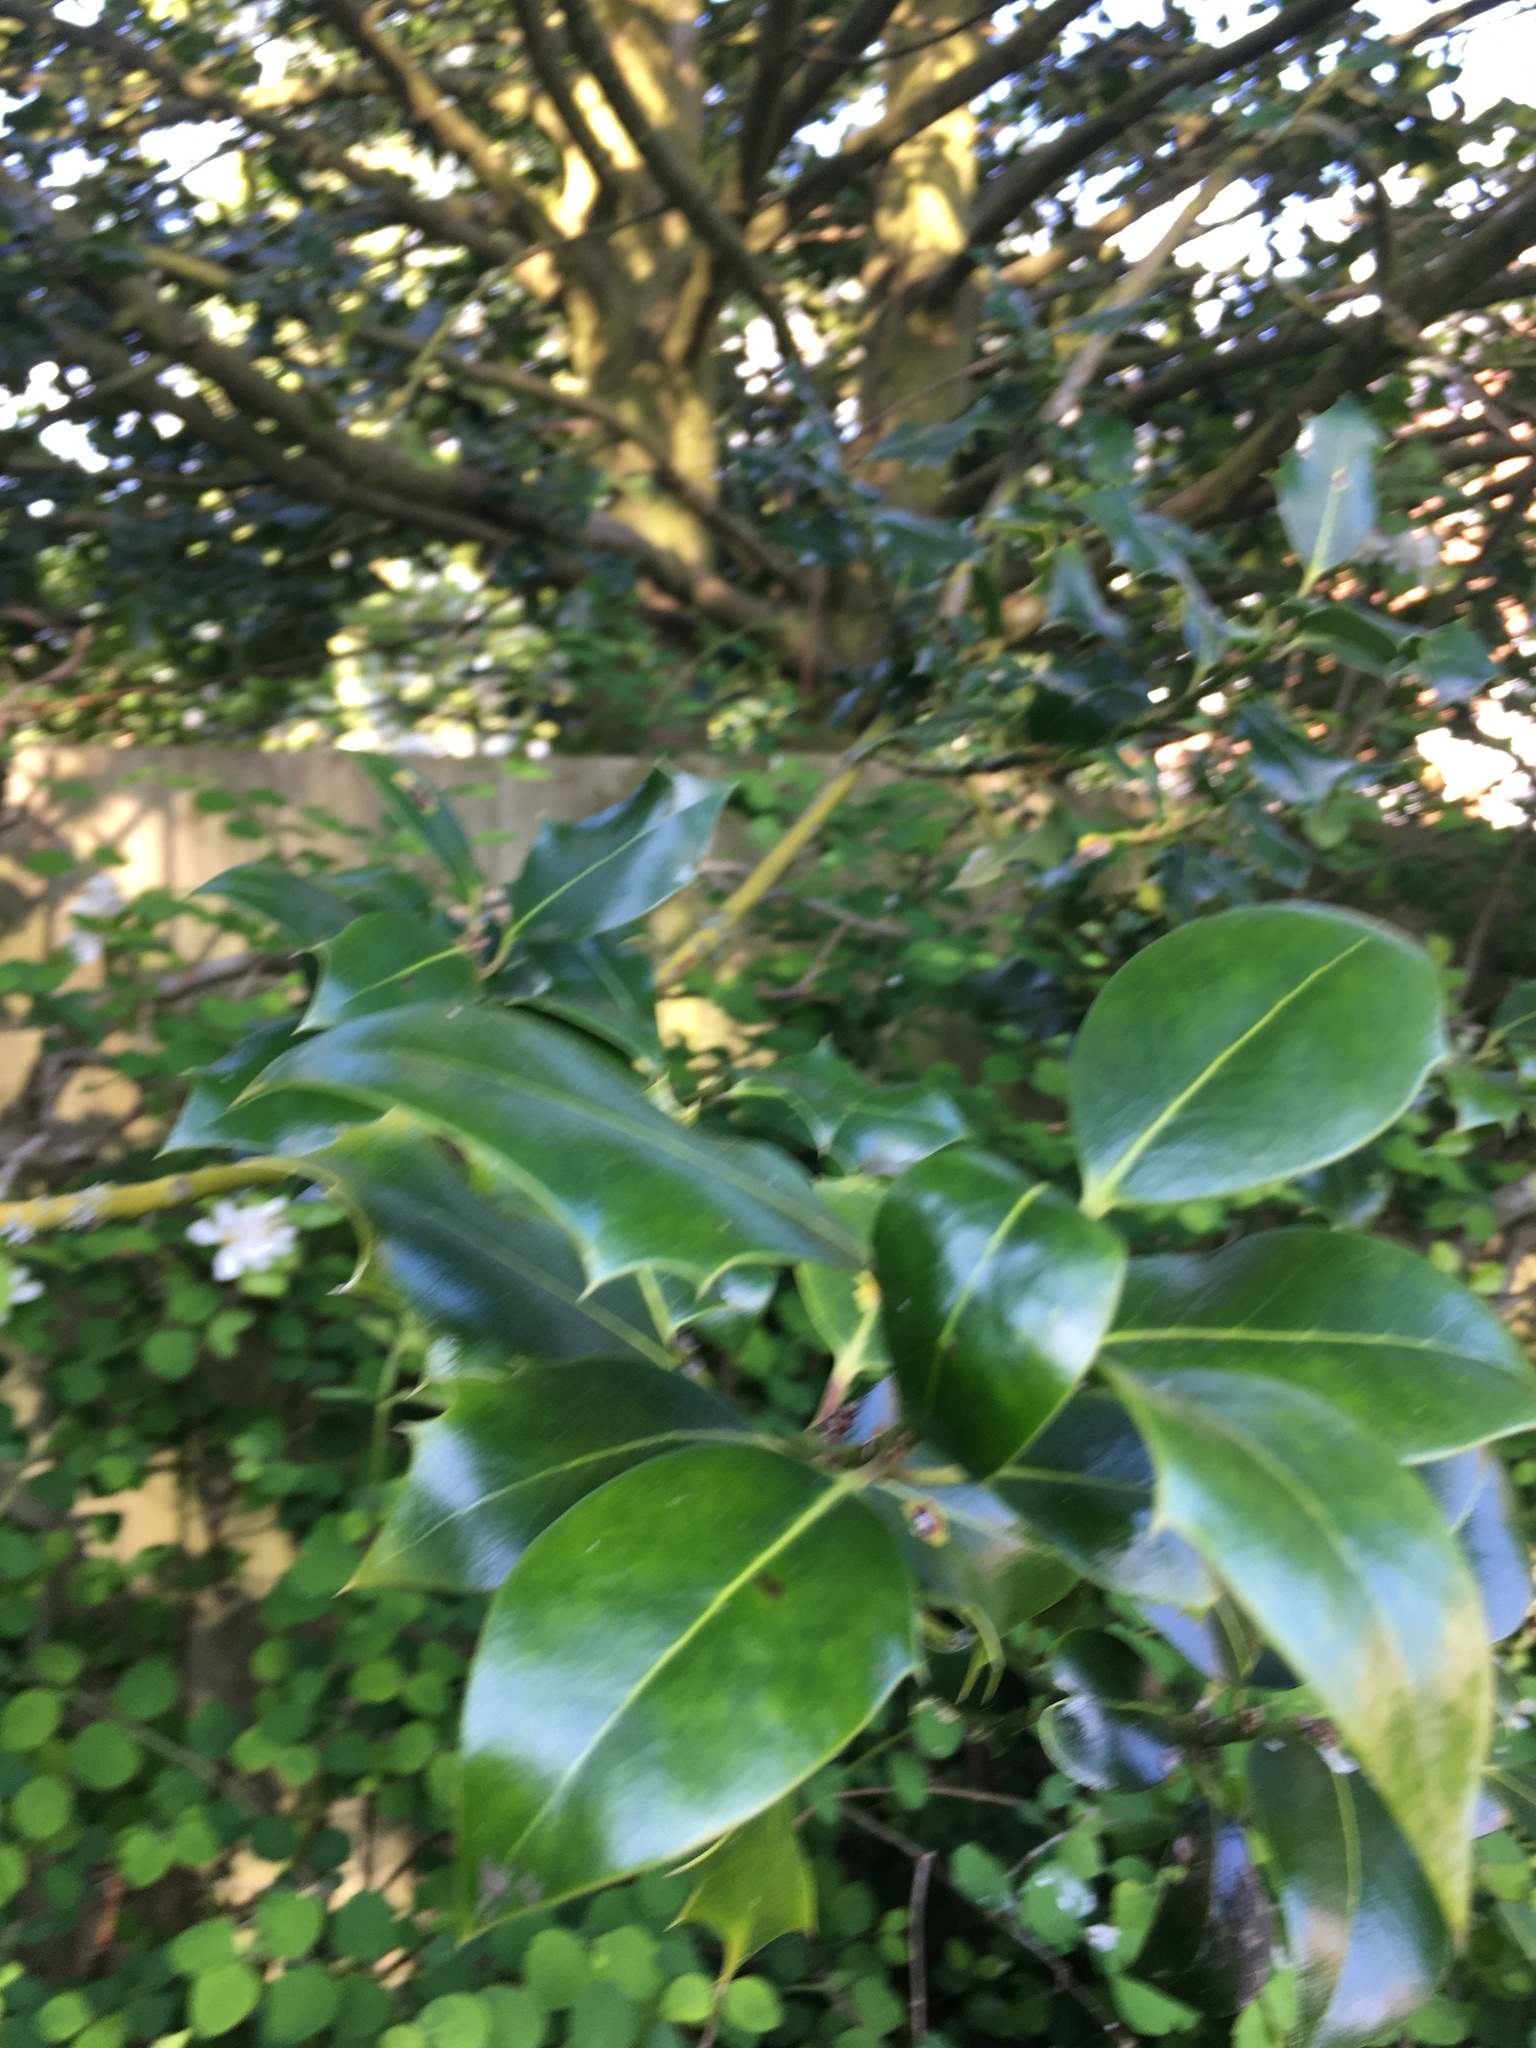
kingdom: Plantae
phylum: Tracheophyta
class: Magnoliopsida
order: Aquifoliales
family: Aquifoliaceae
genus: Ilex
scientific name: Ilex aquifolium
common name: English holly
